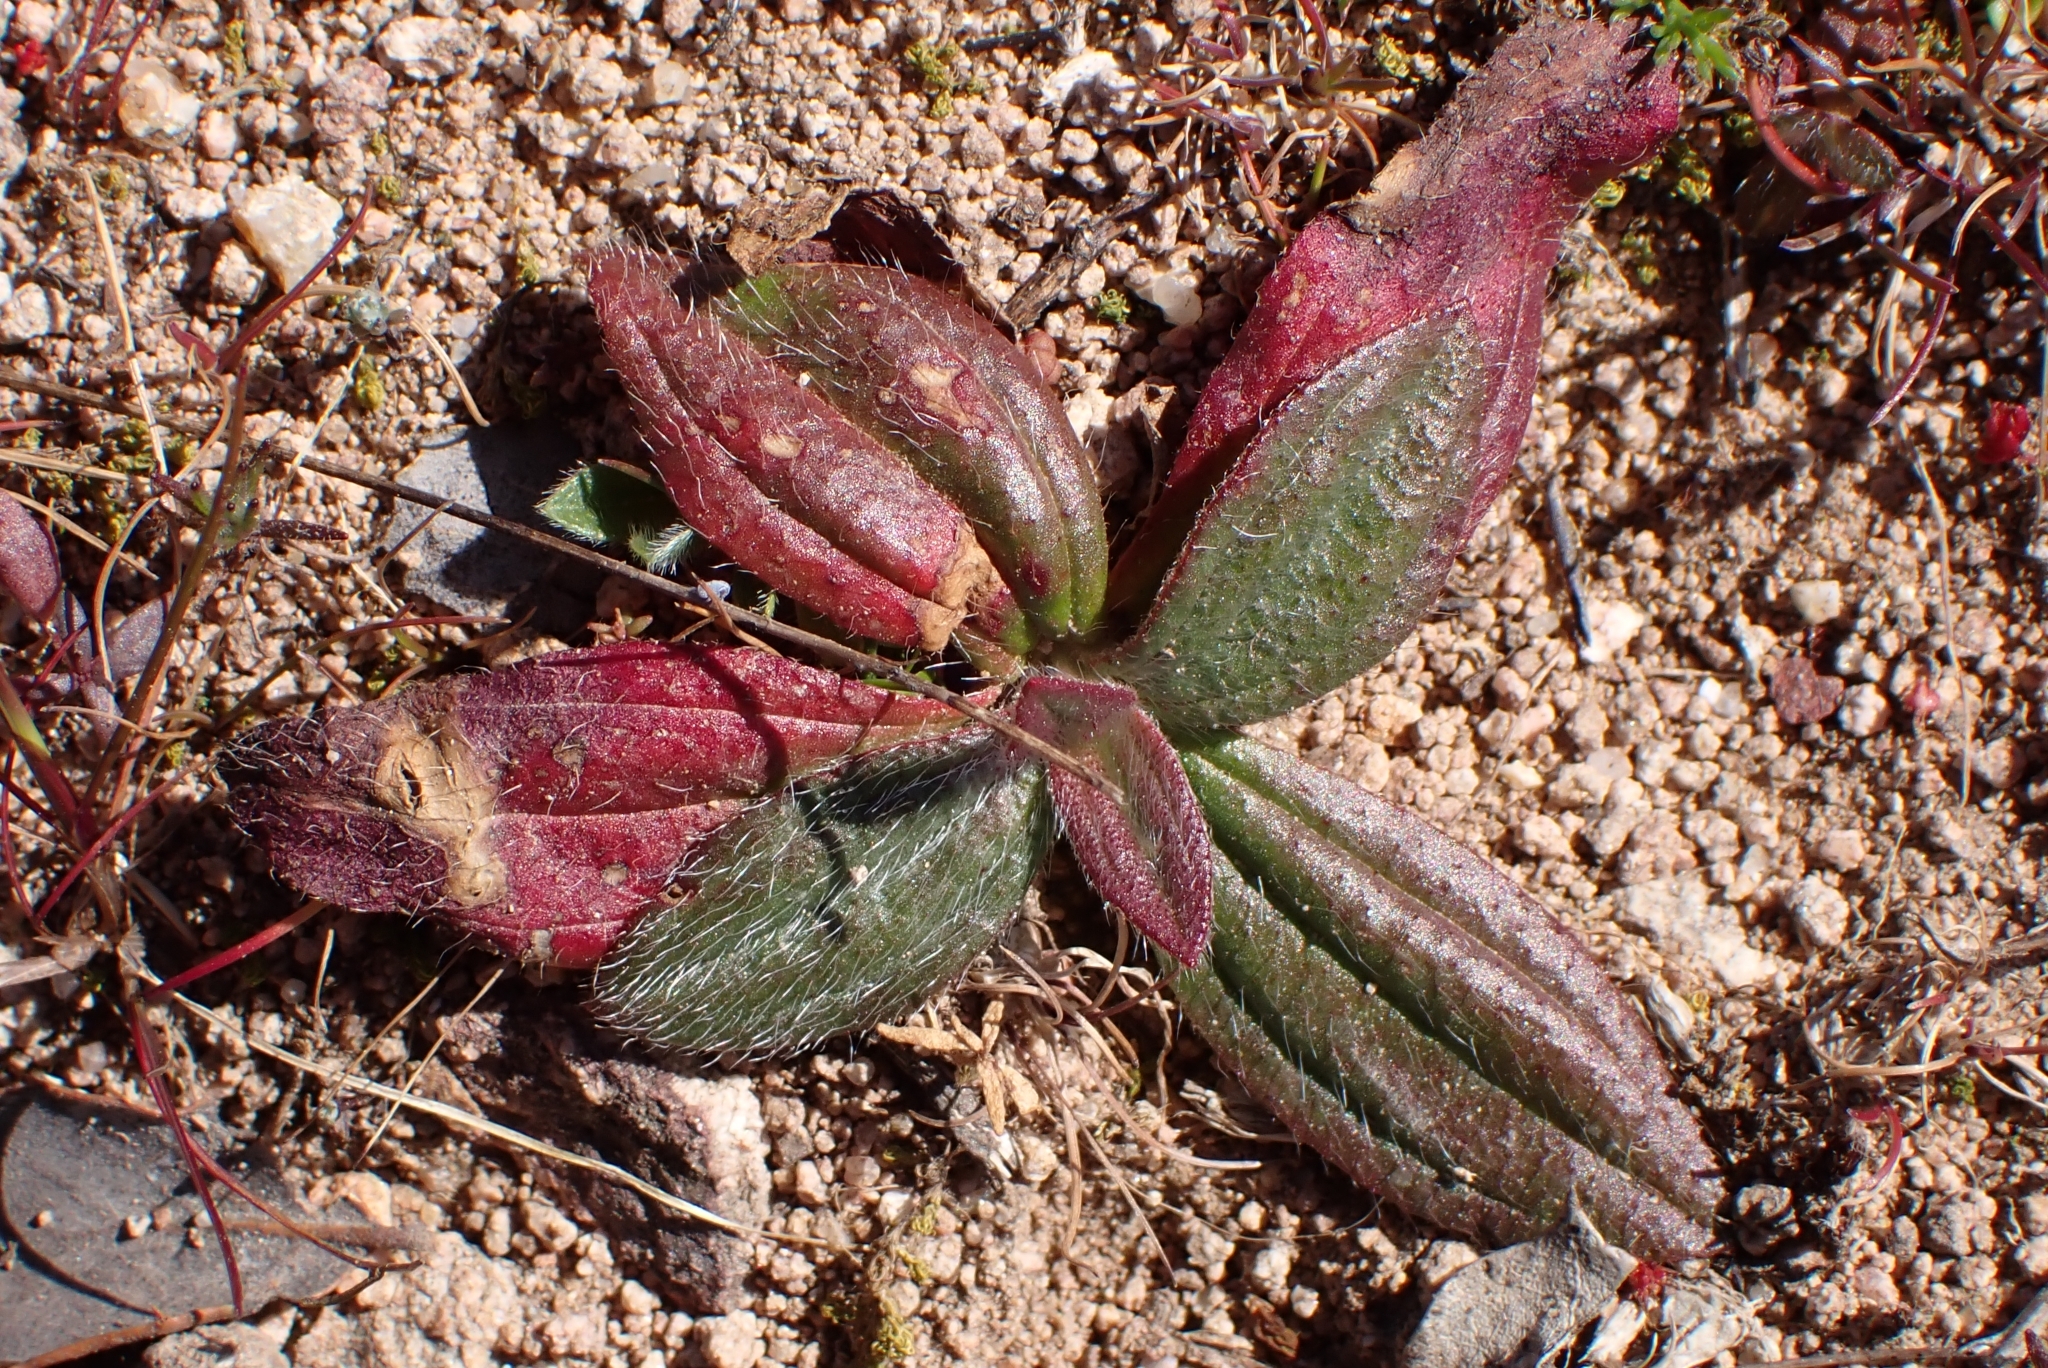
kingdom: Plantae
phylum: Tracheophyta
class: Magnoliopsida
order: Malvales
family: Cistaceae
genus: Tuberaria
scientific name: Tuberaria guttata
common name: Spotted rock-rose
